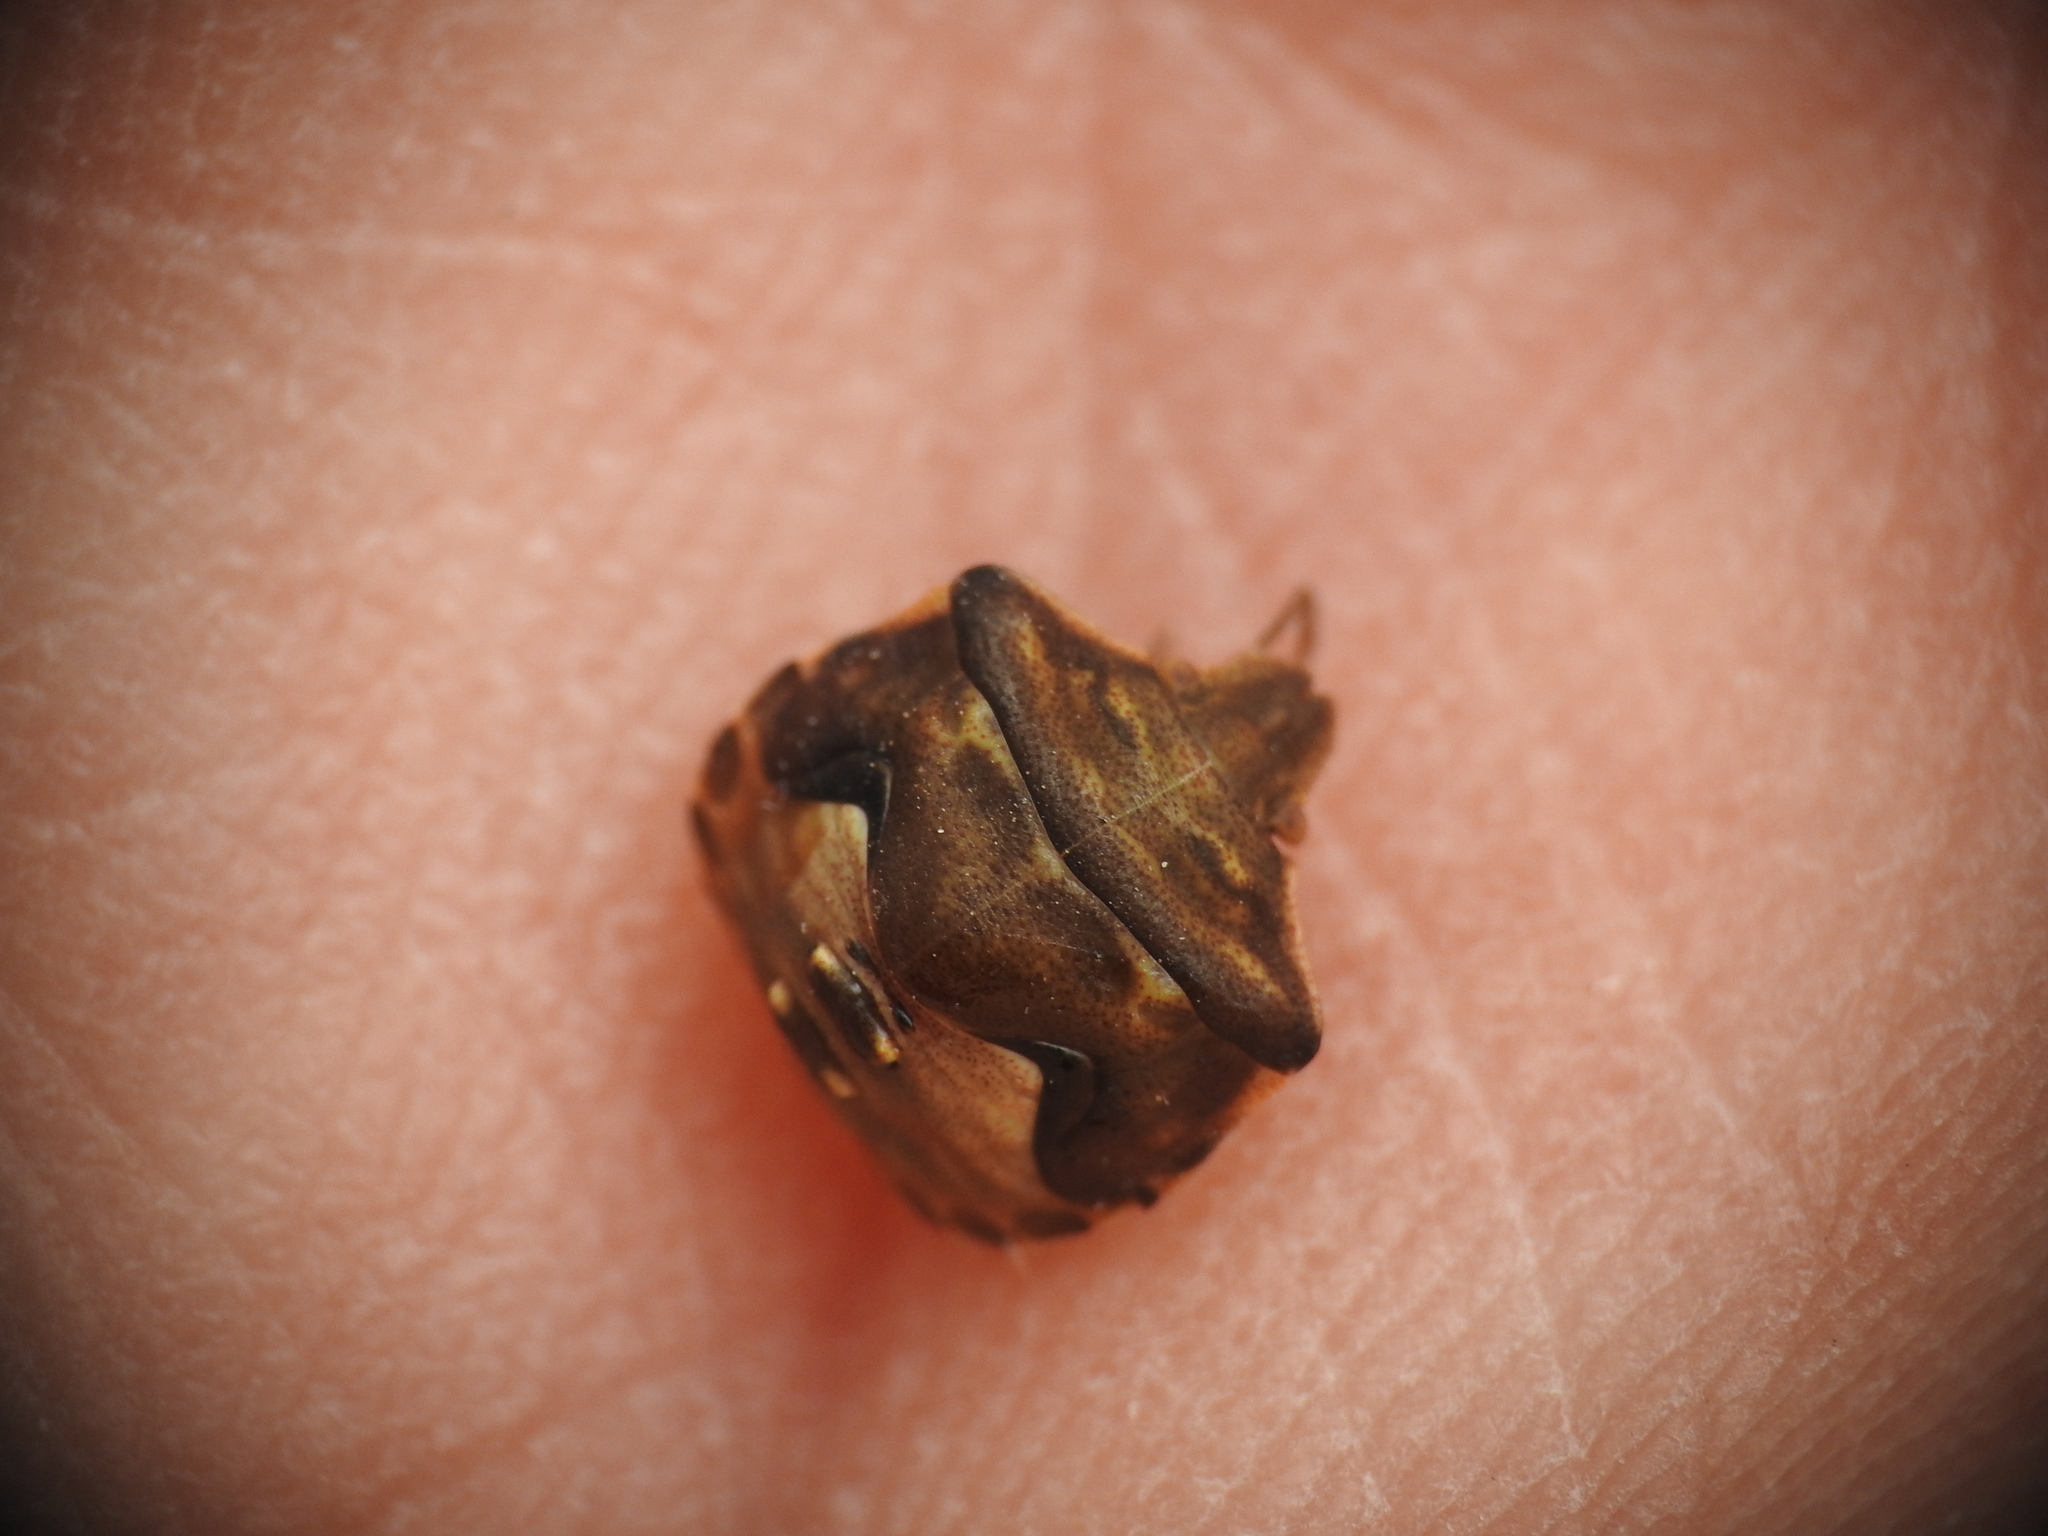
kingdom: Animalia
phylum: Arthropoda
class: Insecta
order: Hemiptera
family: Pentatomidae
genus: Ventocoris
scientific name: Ventocoris rusticus
